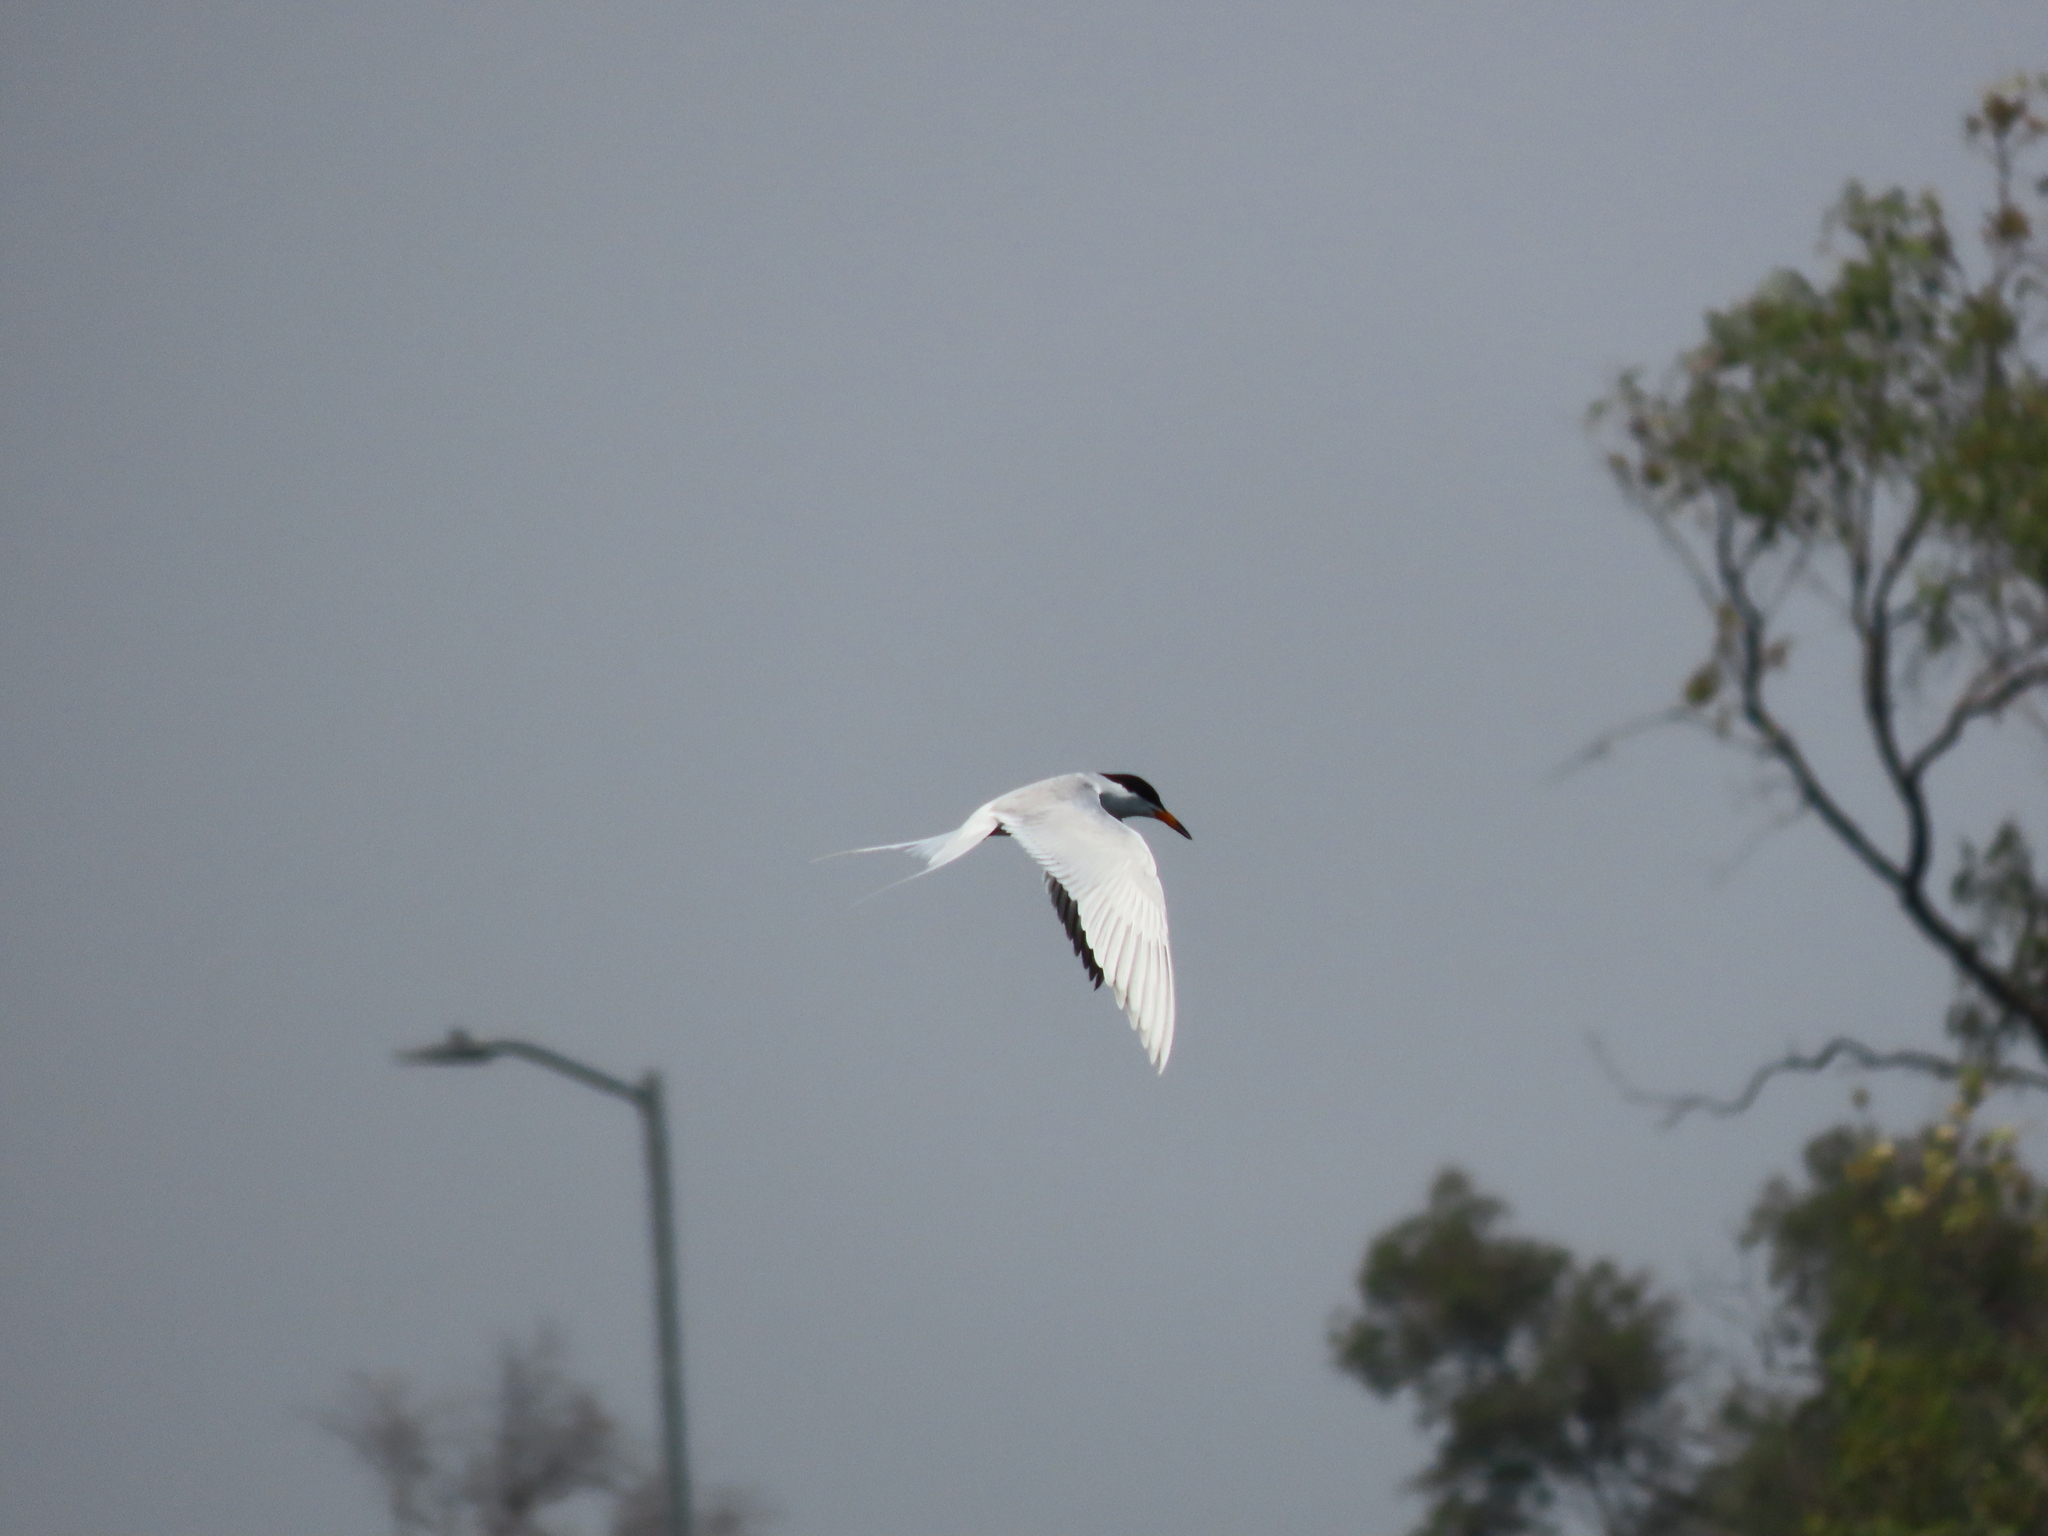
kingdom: Animalia
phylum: Chordata
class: Aves
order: Charadriiformes
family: Laridae
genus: Sterna
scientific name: Sterna forsteri
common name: Forster's tern
